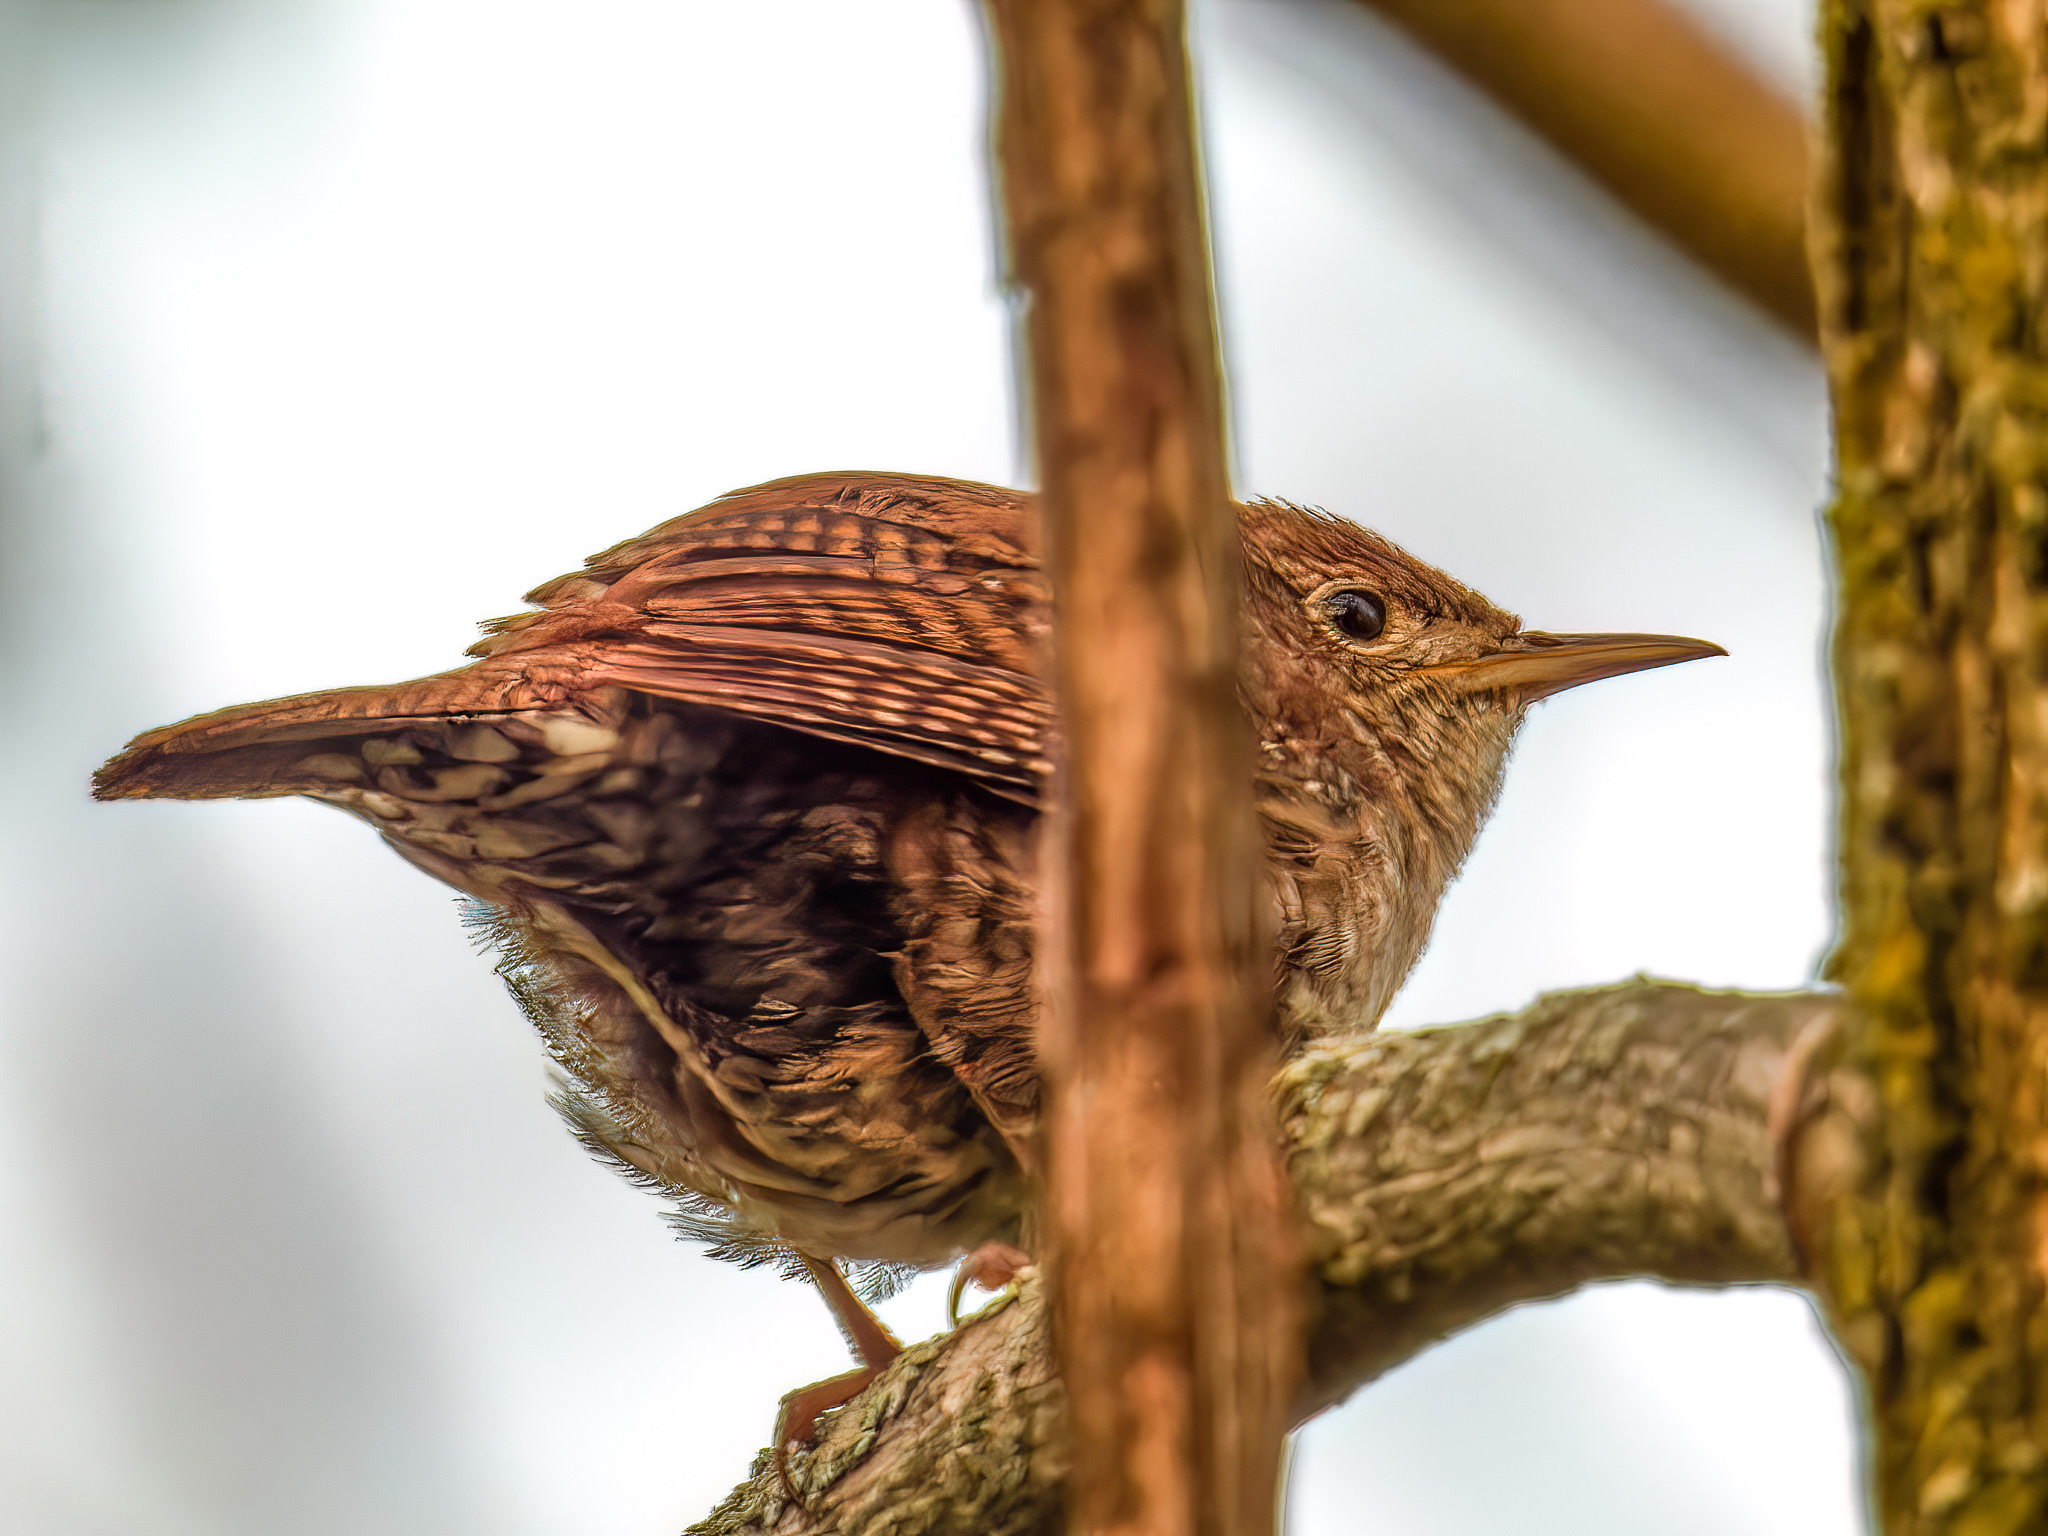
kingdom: Animalia
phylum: Chordata
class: Aves
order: Passeriformes
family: Troglodytidae
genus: Troglodytes
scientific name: Troglodytes aedon
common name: House wren
